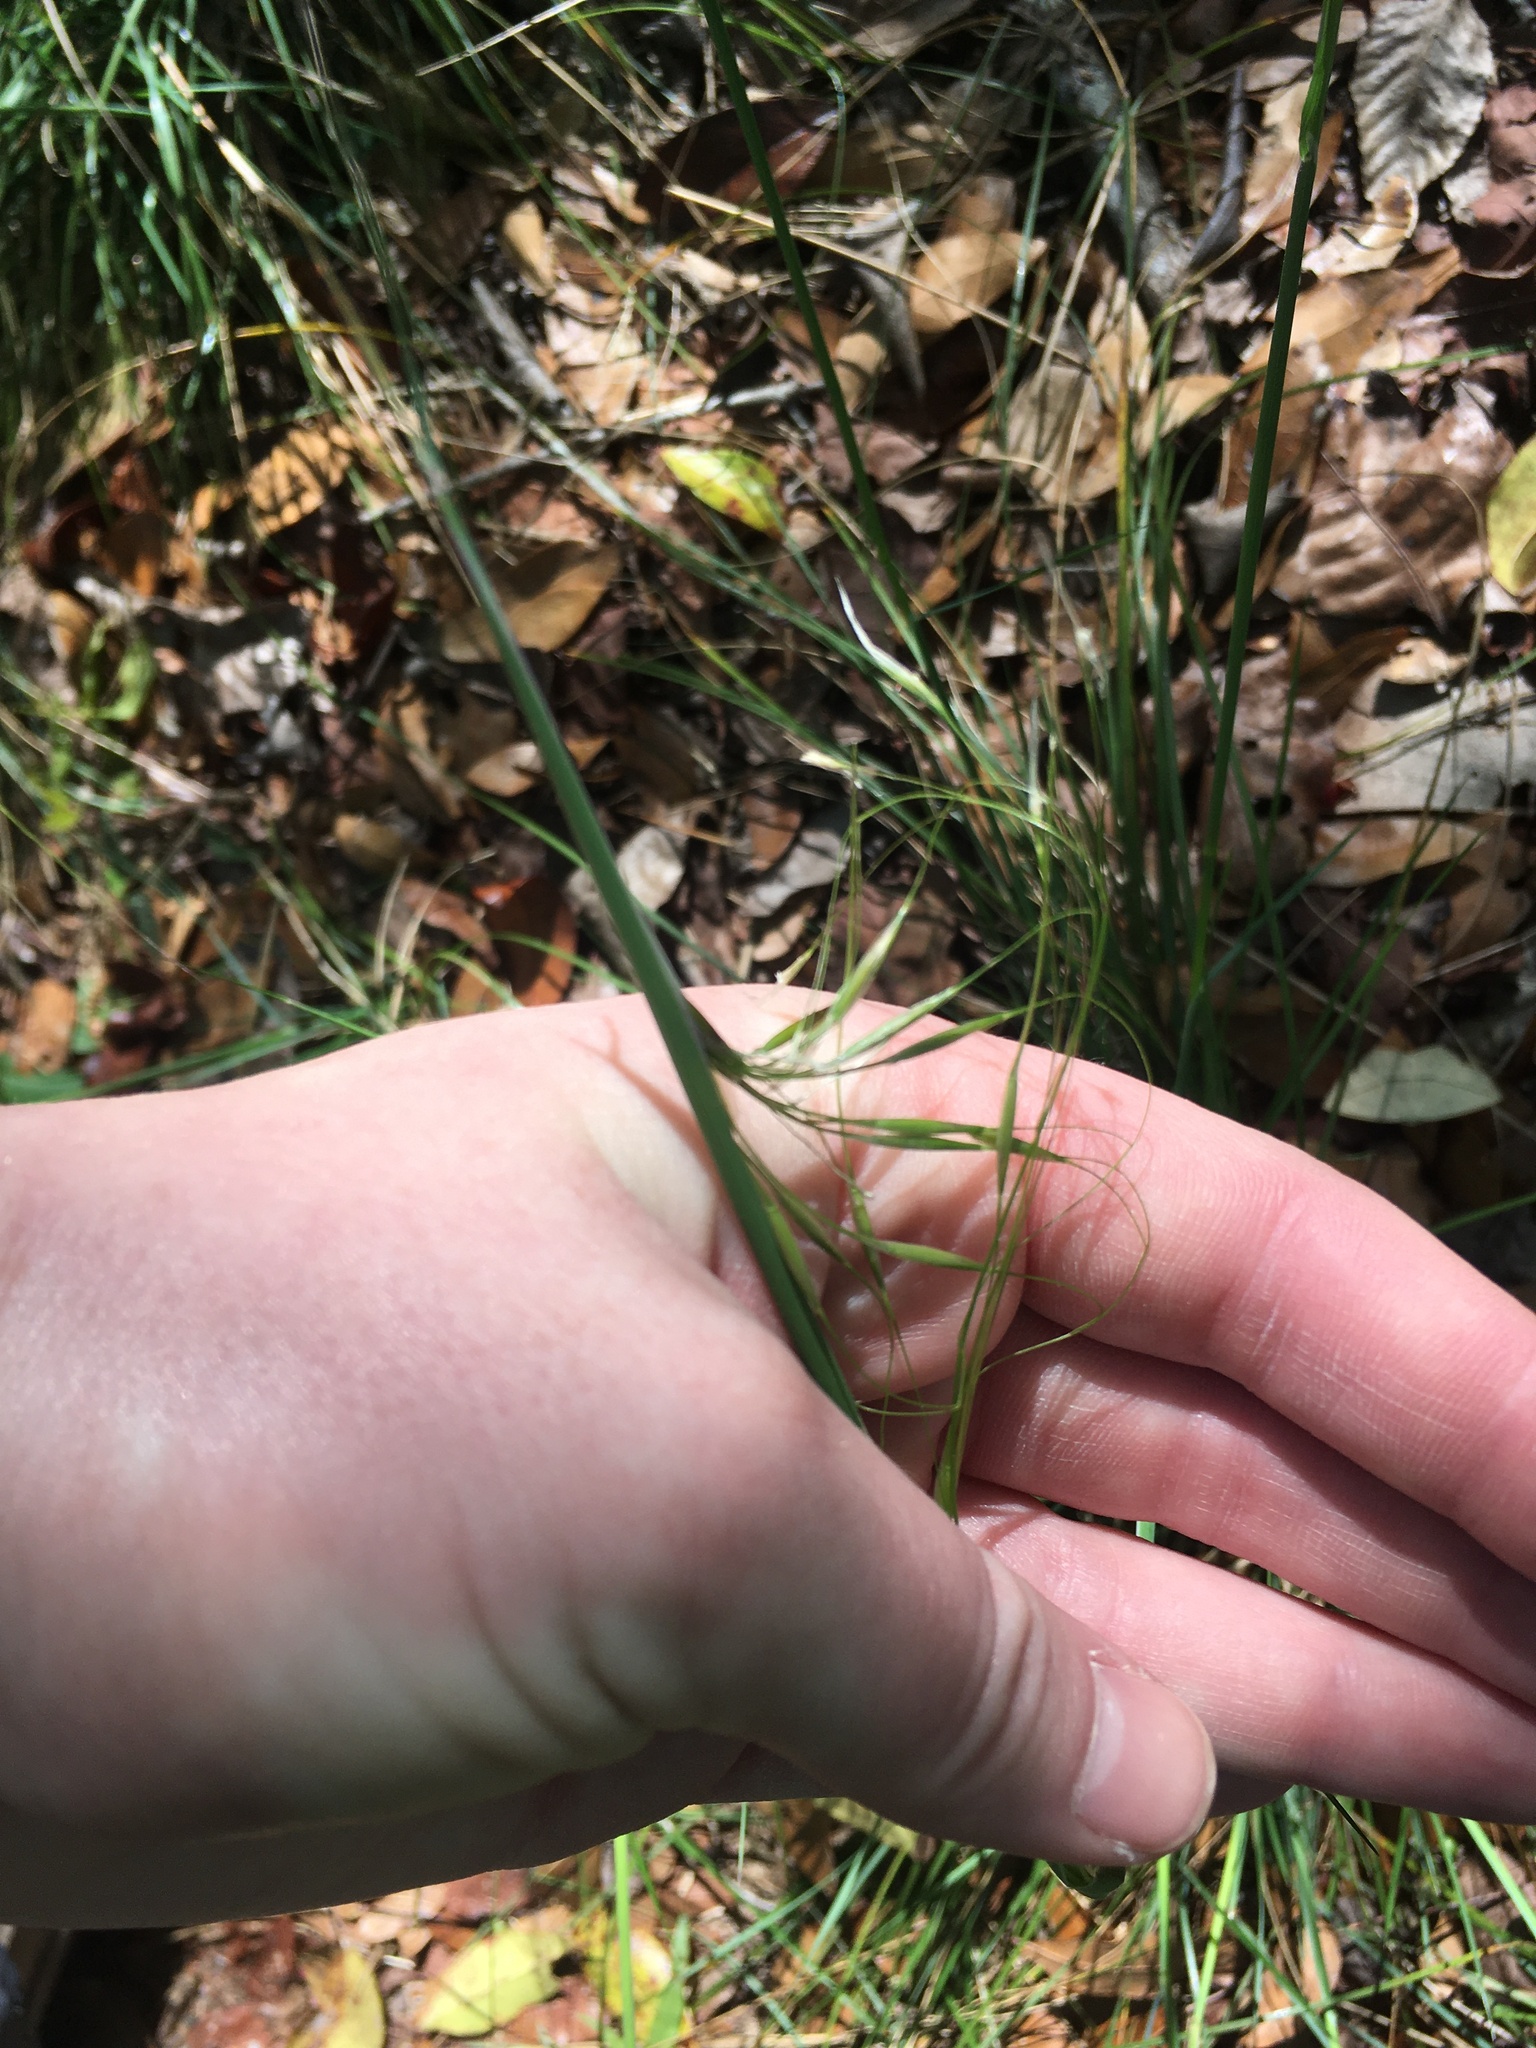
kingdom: Plantae
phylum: Tracheophyta
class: Liliopsida
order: Poales
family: Poaceae
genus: Piptochaetium
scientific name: Piptochaetium avenaceum
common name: Black bunchgrass
